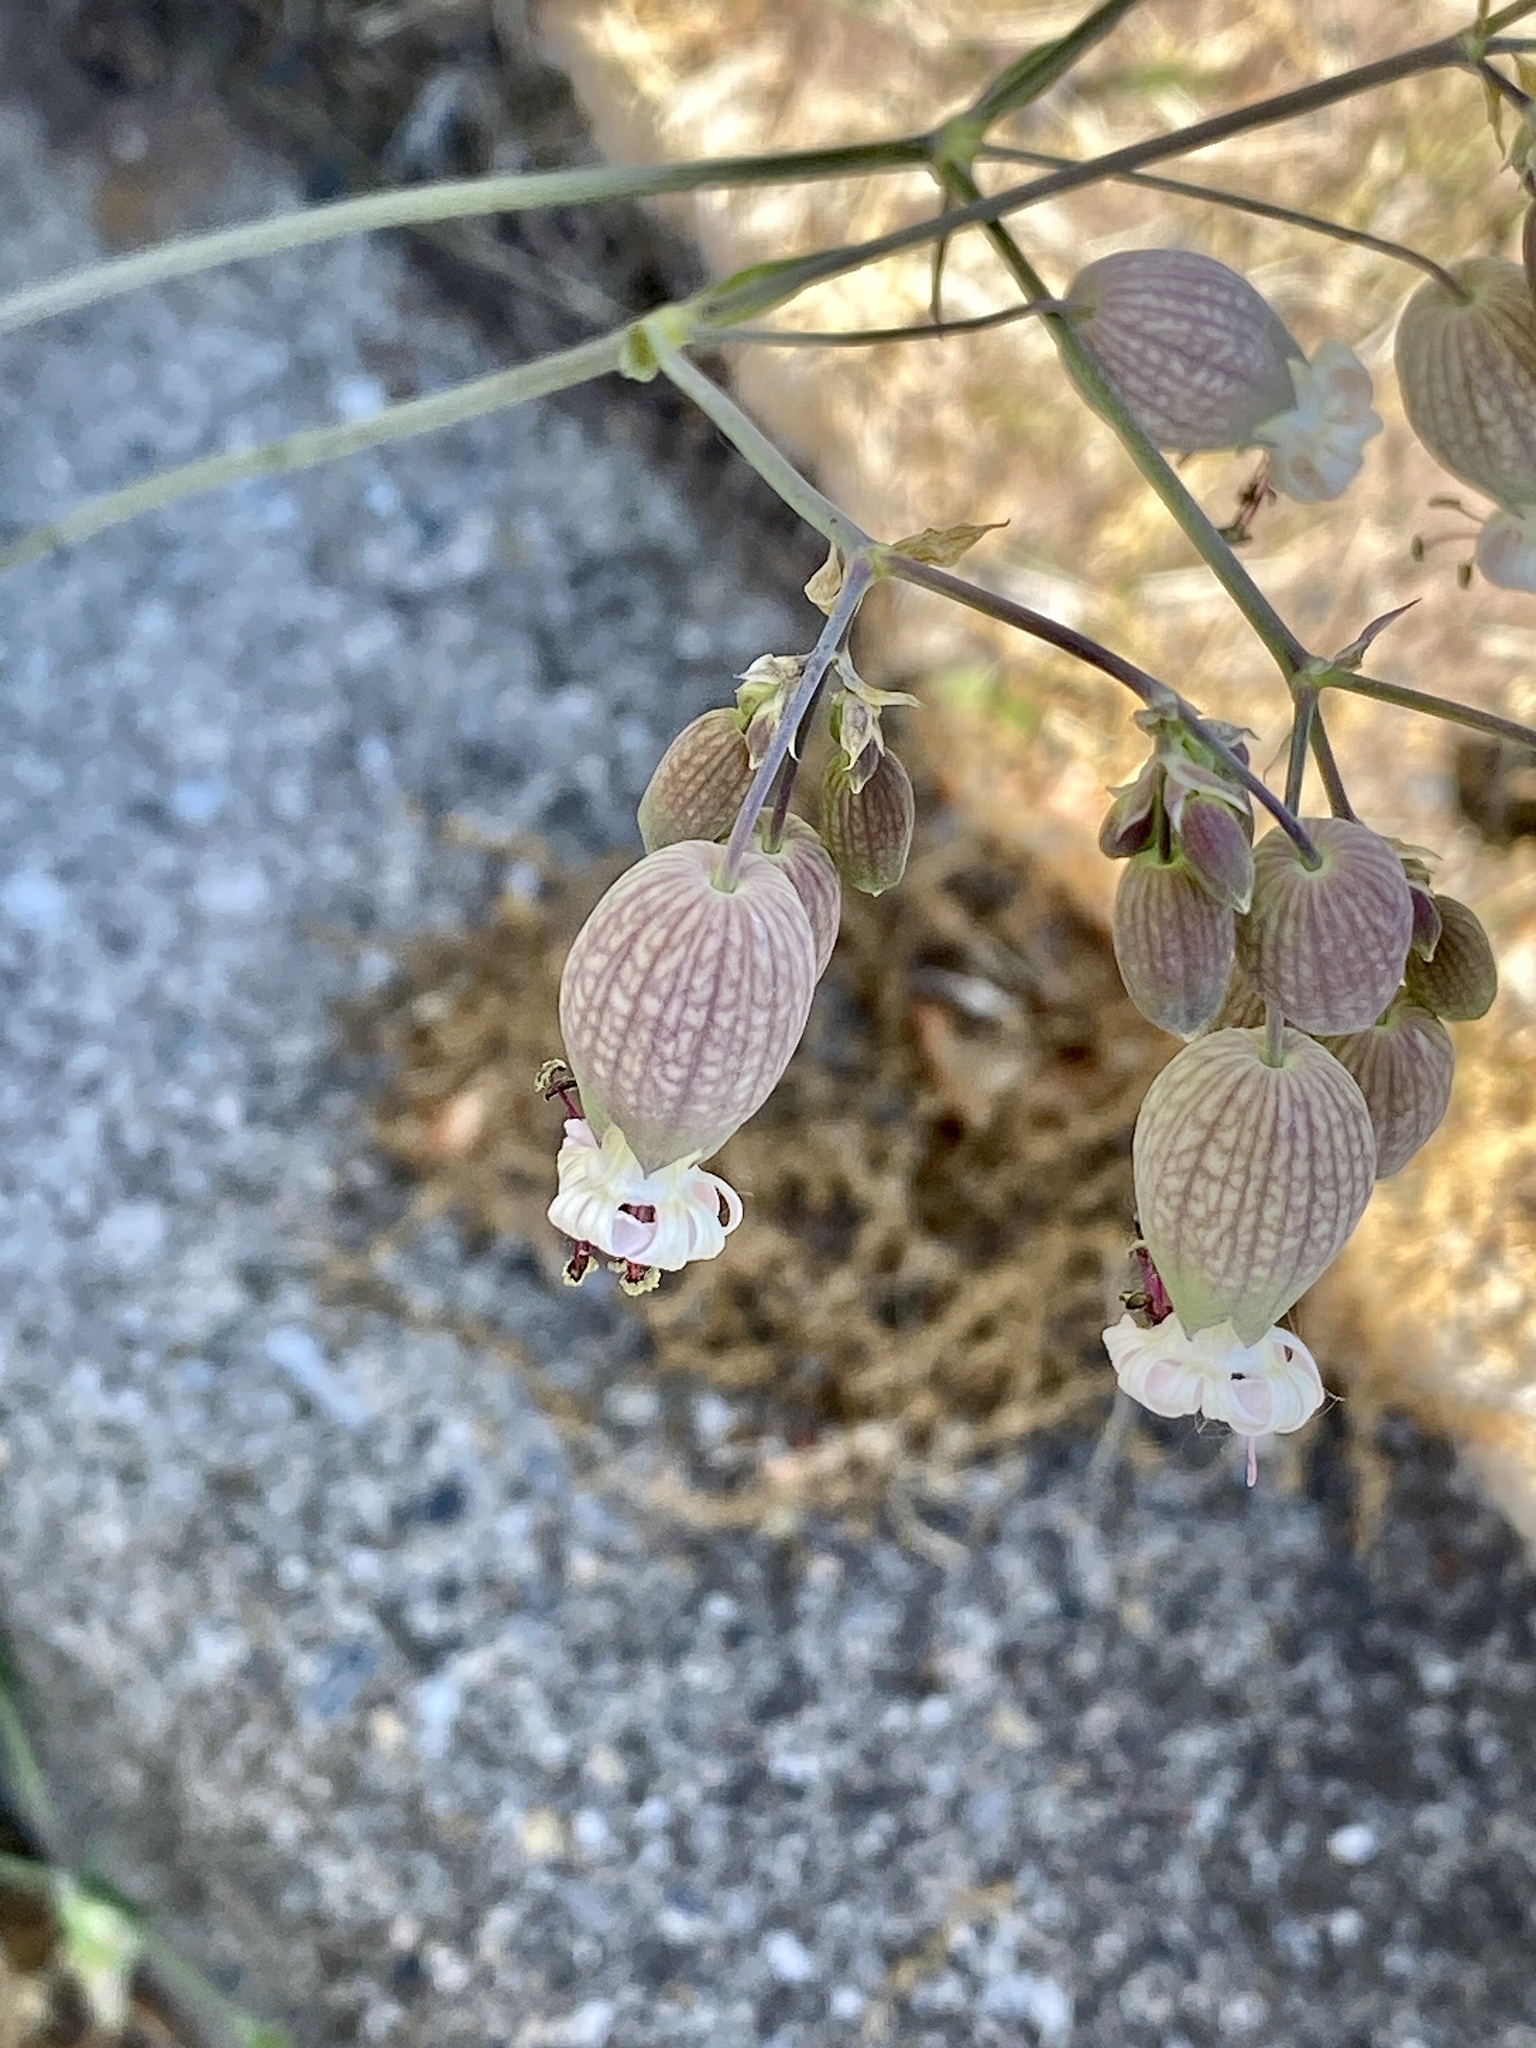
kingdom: Plantae
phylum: Tracheophyta
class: Magnoliopsida
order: Caryophyllales
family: Caryophyllaceae
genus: Silene
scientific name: Silene vulgaris
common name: Bladder campion
